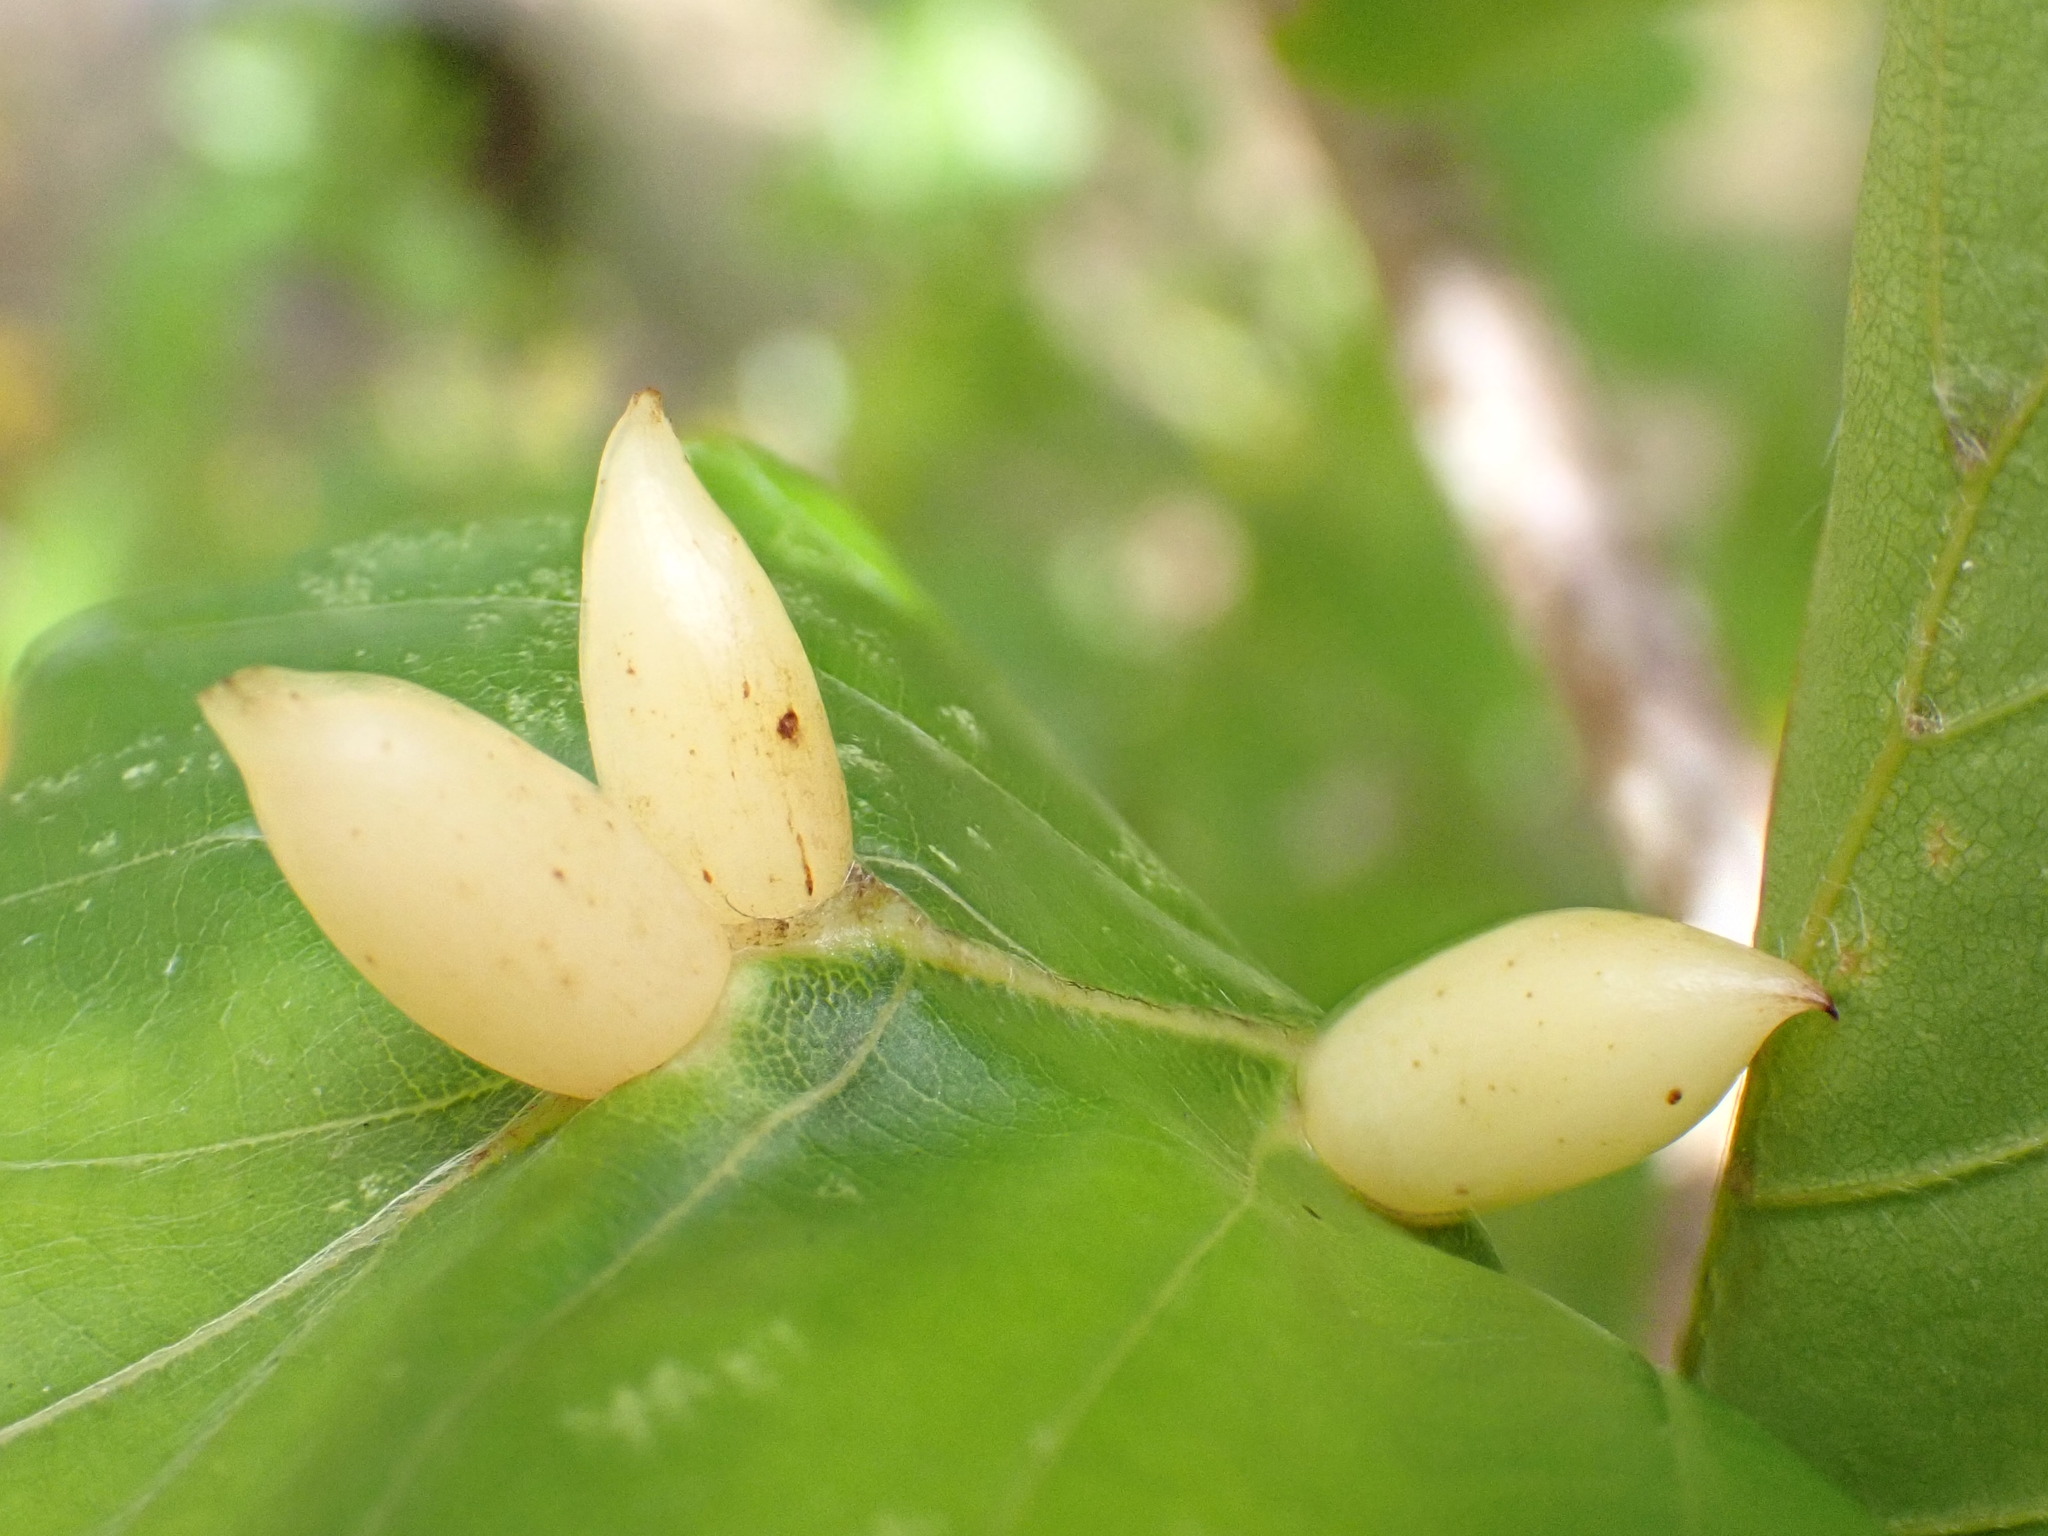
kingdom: Animalia
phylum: Arthropoda
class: Insecta
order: Diptera
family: Cecidomyiidae
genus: Mikiola
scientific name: Mikiola fagi
